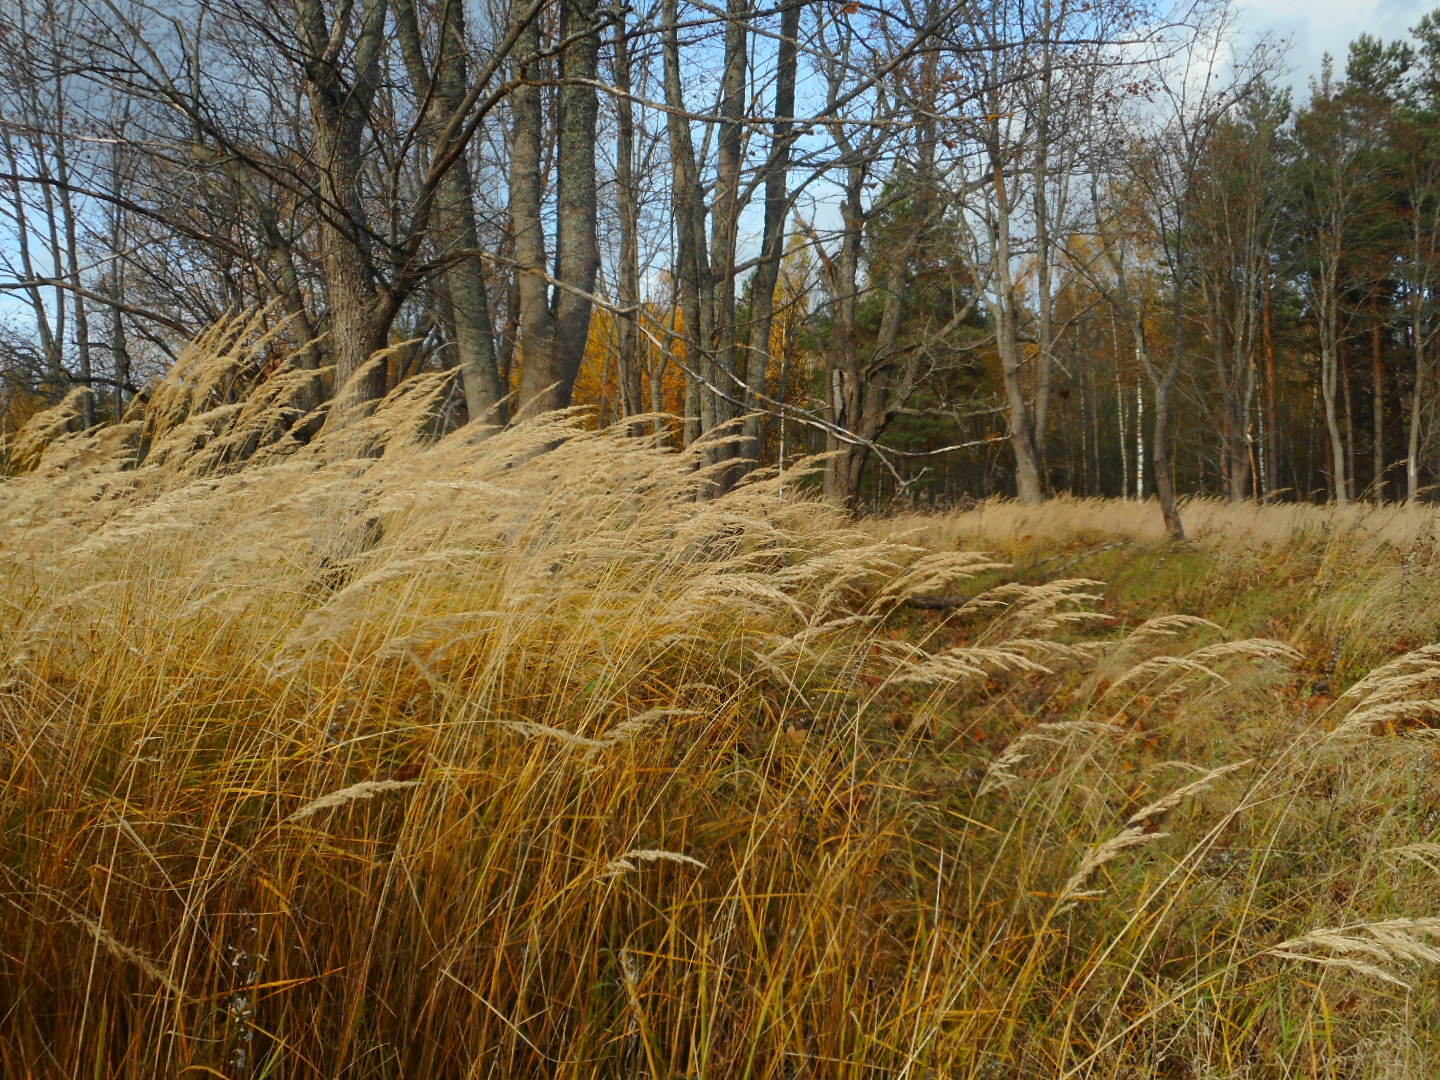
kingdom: Plantae
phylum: Tracheophyta
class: Liliopsida
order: Poales
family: Poaceae
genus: Calamagrostis
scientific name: Calamagrostis epigejos
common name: Wood small-reed
